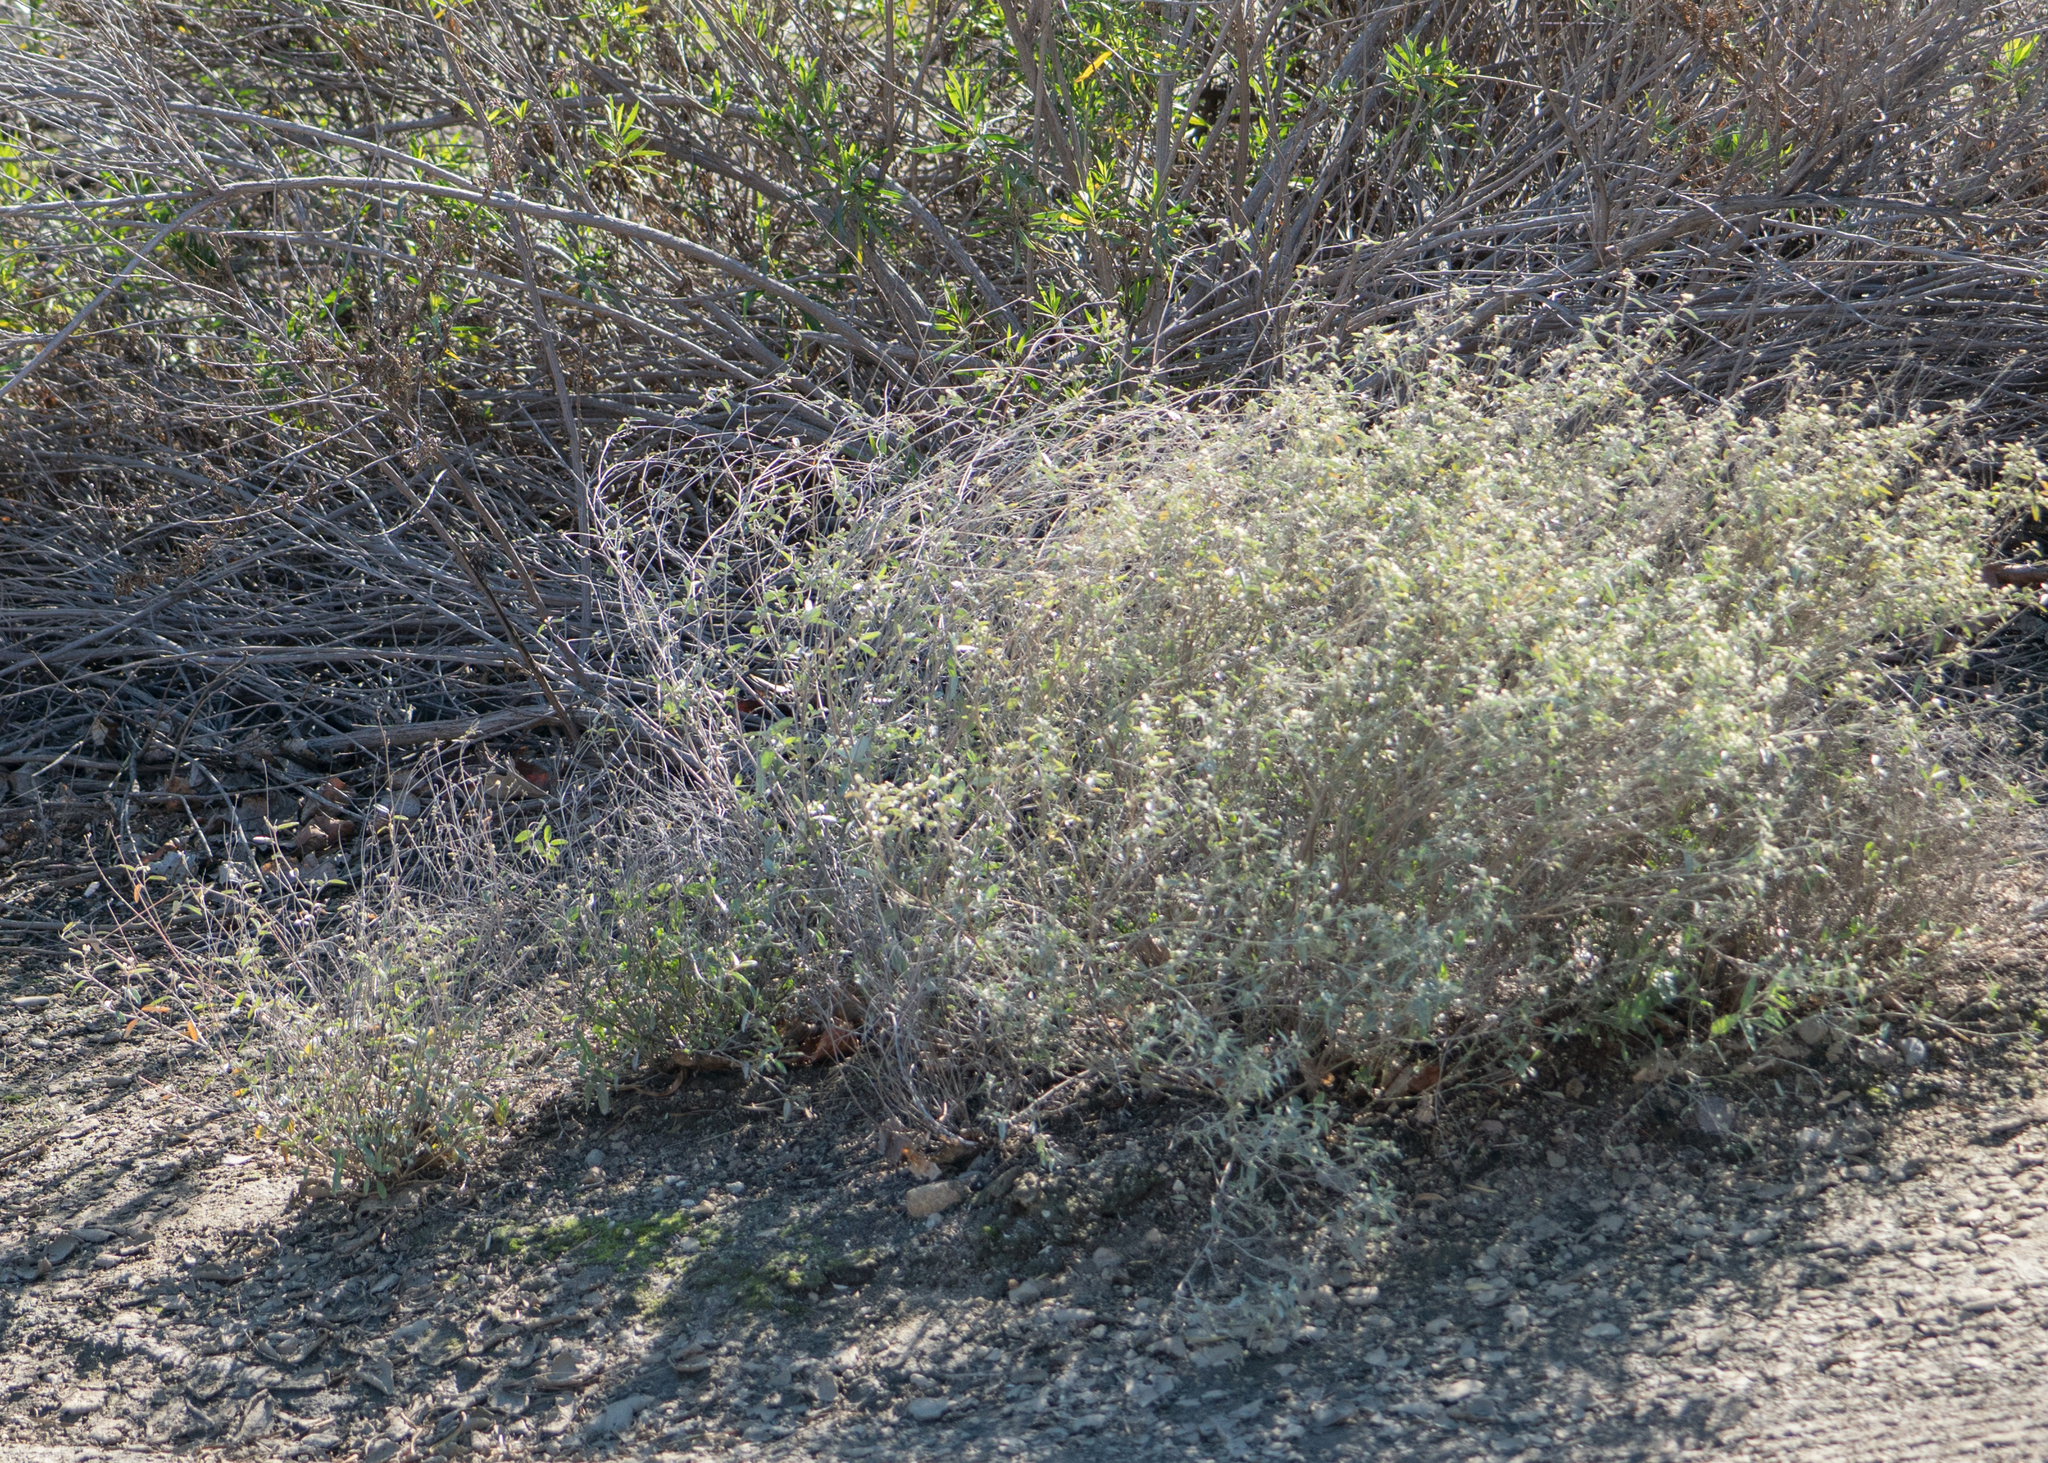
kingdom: Plantae
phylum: Tracheophyta
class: Magnoliopsida
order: Malpighiales
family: Euphorbiaceae
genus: Croton
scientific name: Croton californicus
